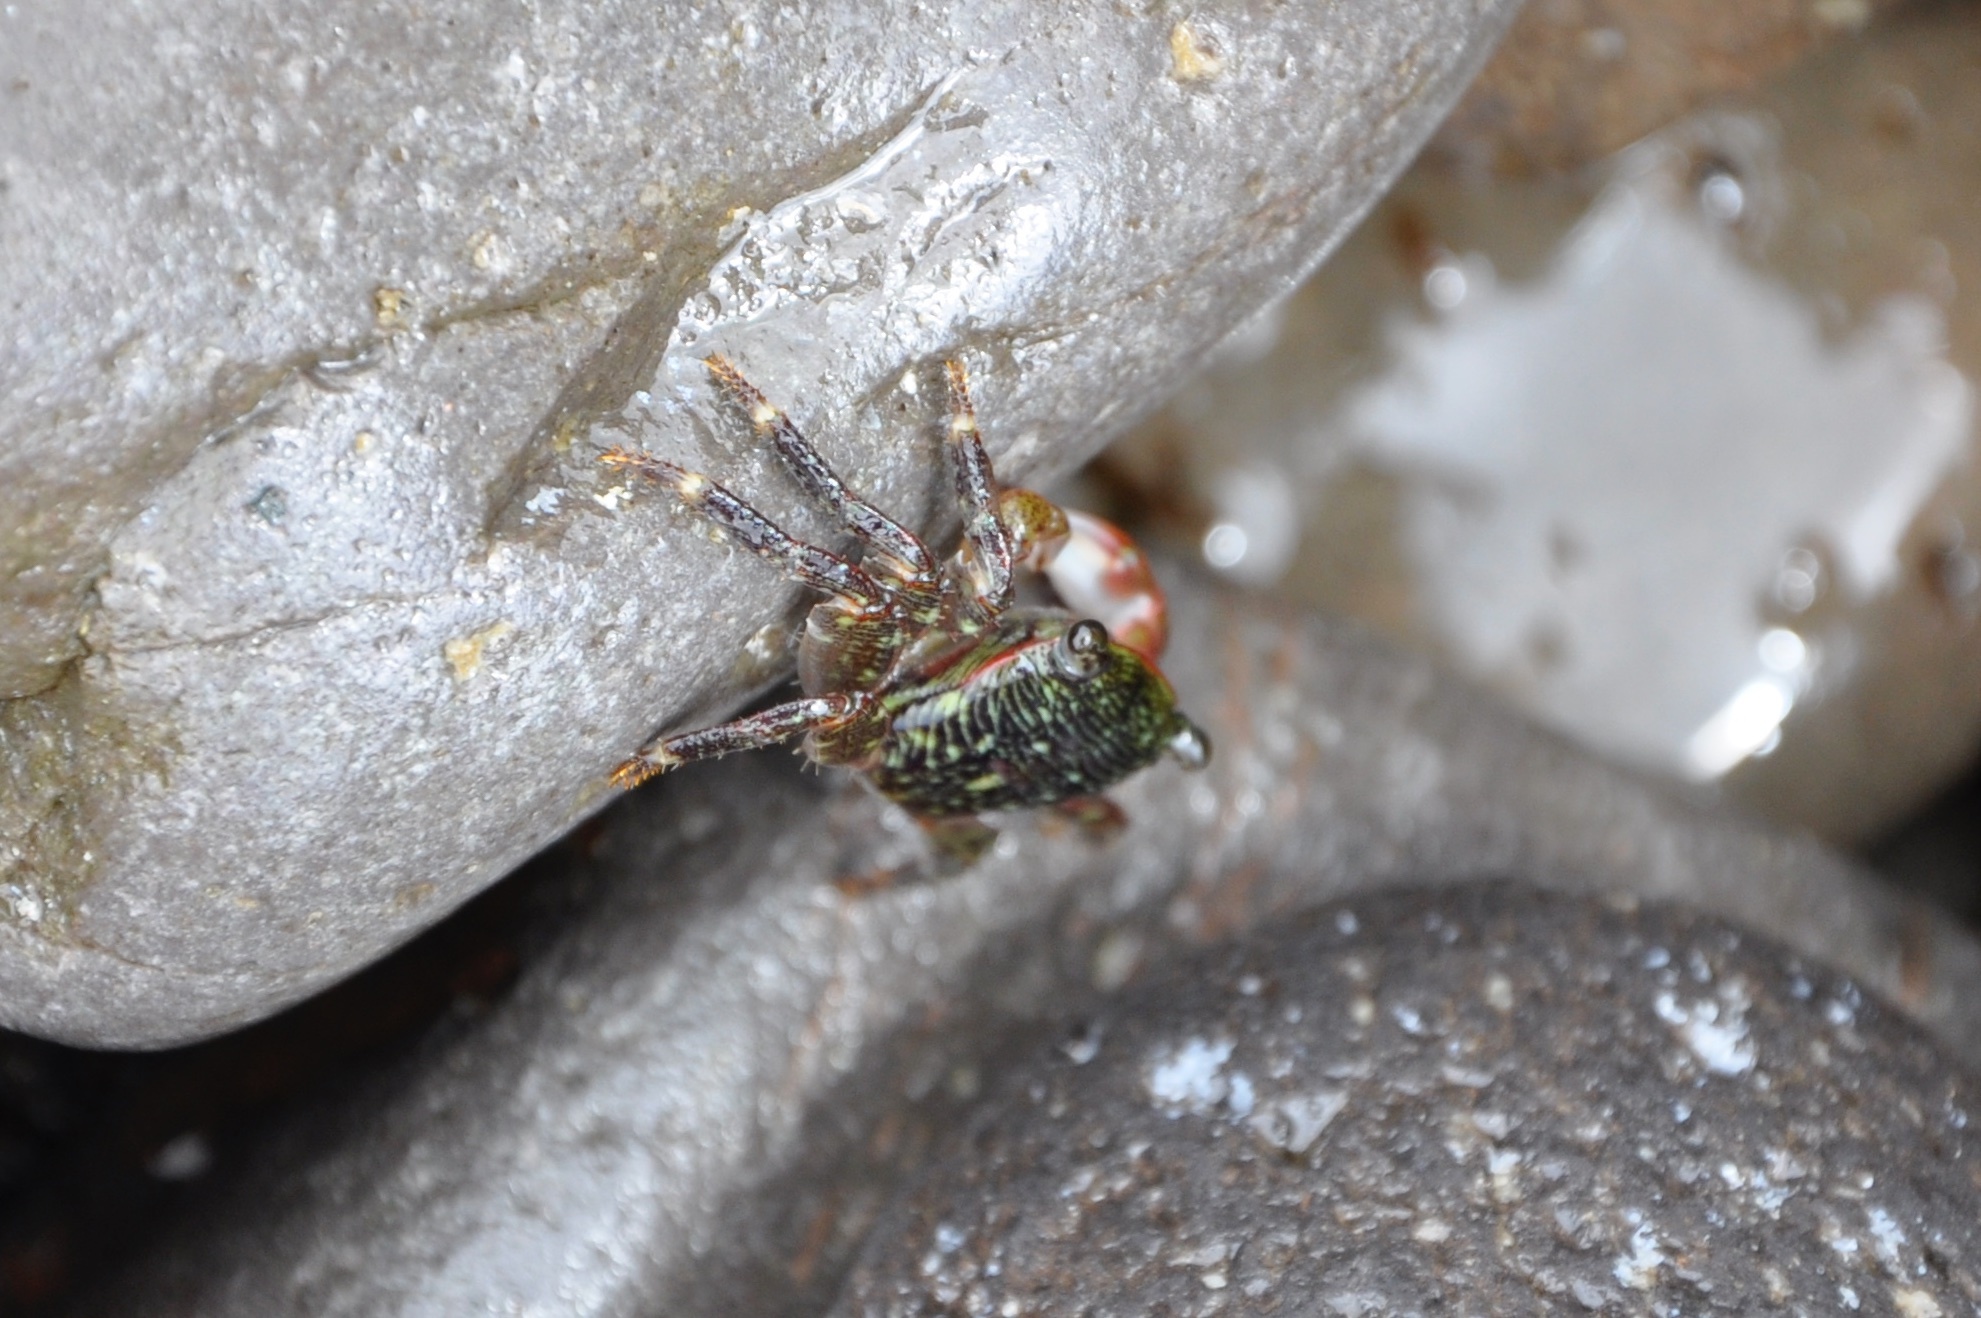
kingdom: Animalia
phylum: Arthropoda
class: Malacostraca
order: Decapoda
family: Grapsidae
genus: Pachygrapsus
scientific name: Pachygrapsus crassipes
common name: Striped shore crab
